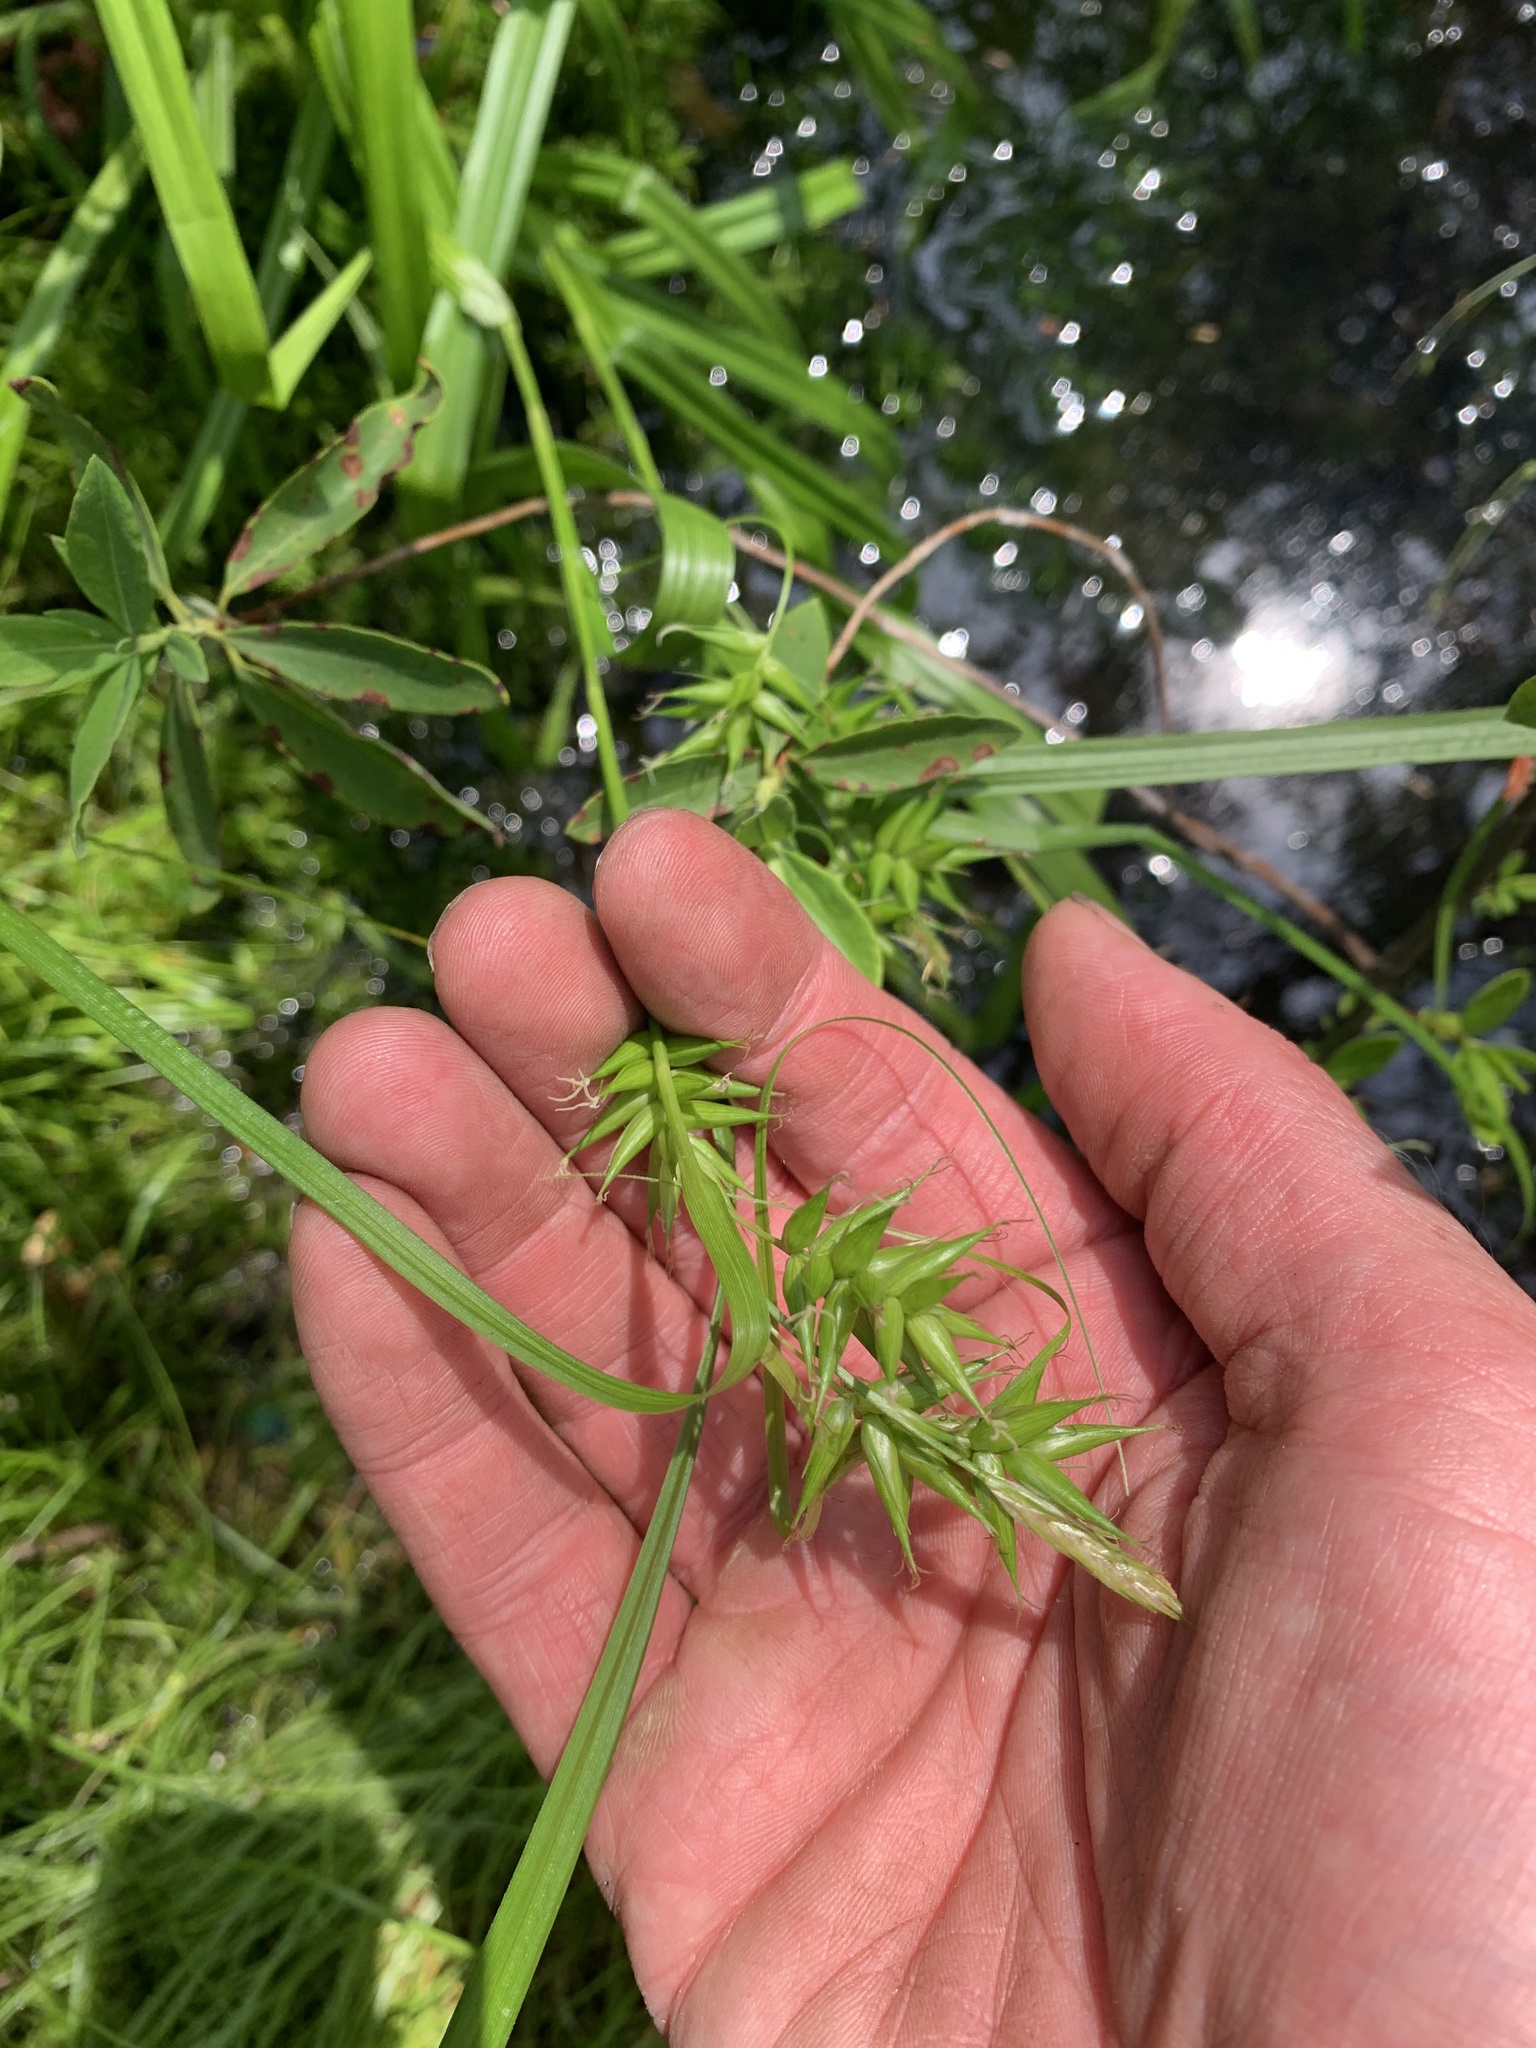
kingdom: Plantae
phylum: Tracheophyta
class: Liliopsida
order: Poales
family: Cyperaceae
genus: Carex
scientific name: Carex folliculata
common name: Northern long sedge
